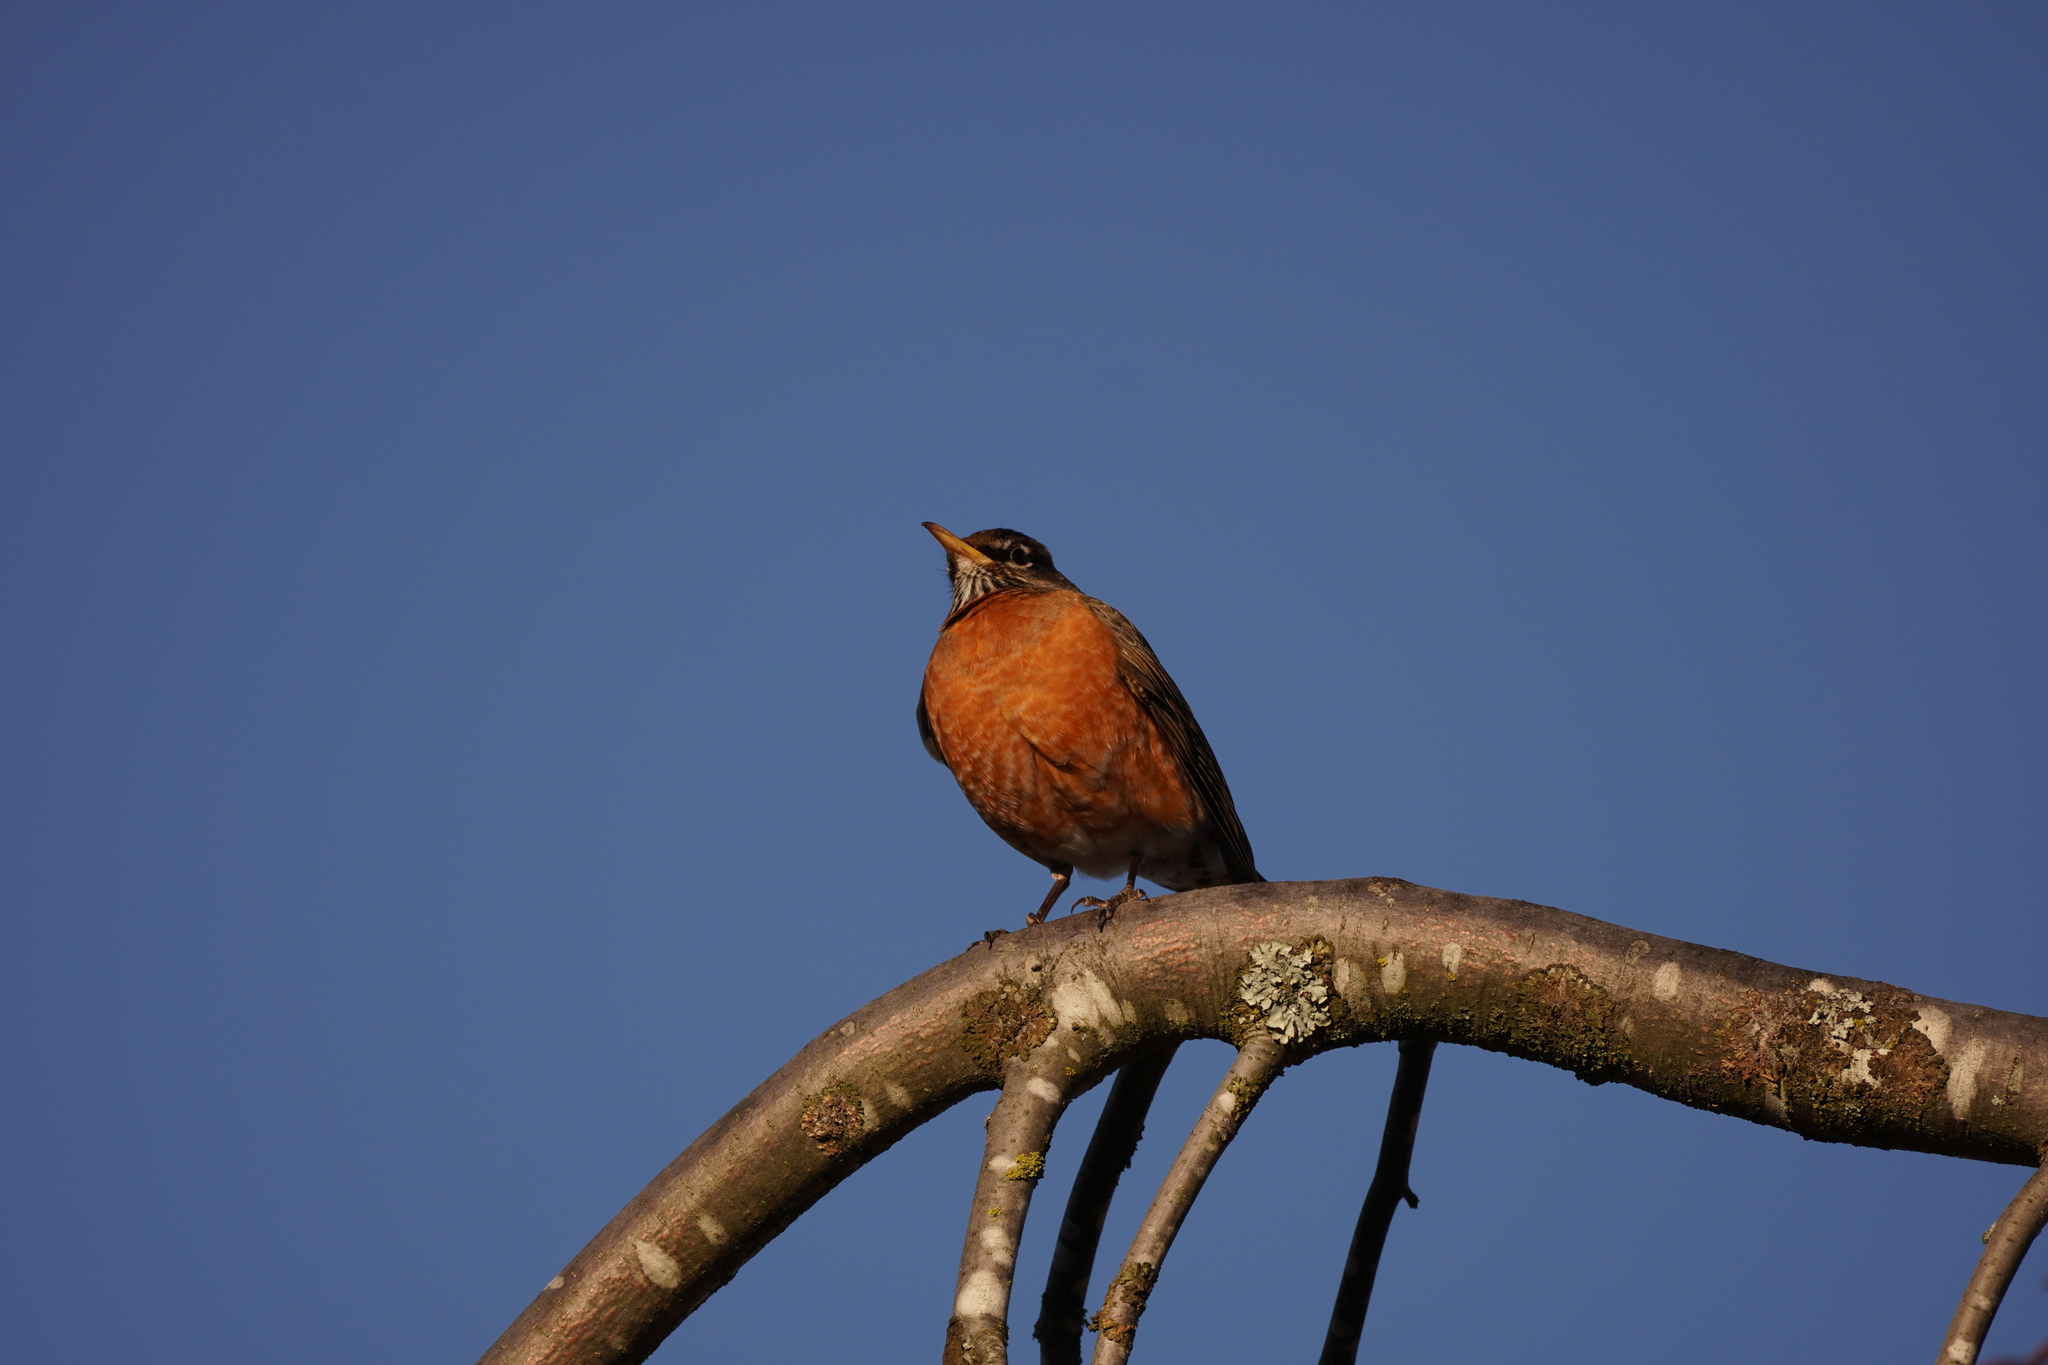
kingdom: Animalia
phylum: Chordata
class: Aves
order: Passeriformes
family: Turdidae
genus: Turdus
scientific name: Turdus migratorius
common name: American robin
